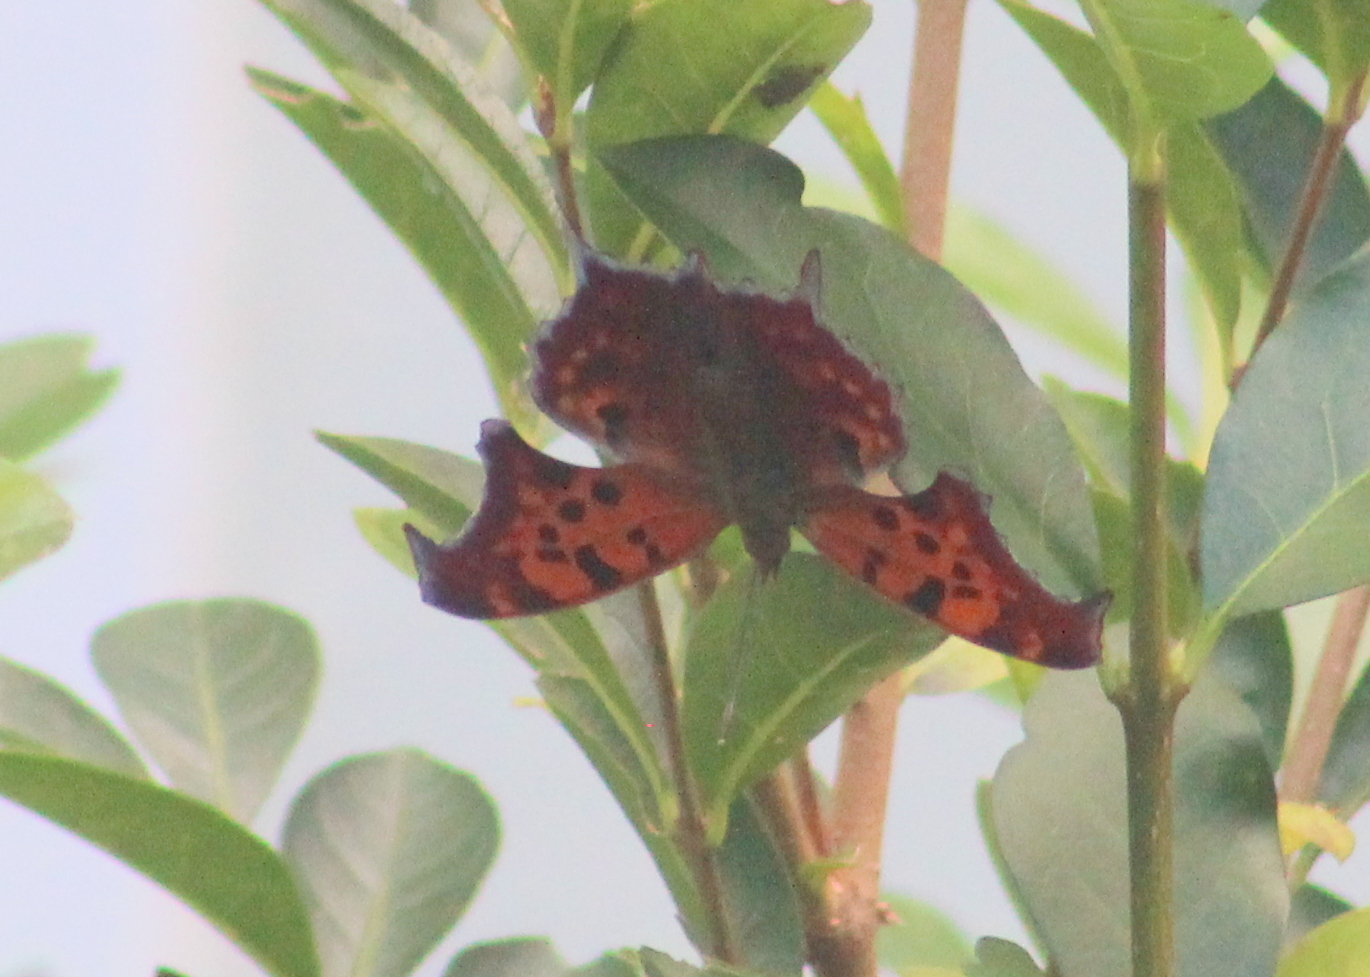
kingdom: Animalia
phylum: Arthropoda
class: Insecta
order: Lepidoptera
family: Nymphalidae
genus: Polygonia
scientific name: Polygonia interrogationis
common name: Question mark
